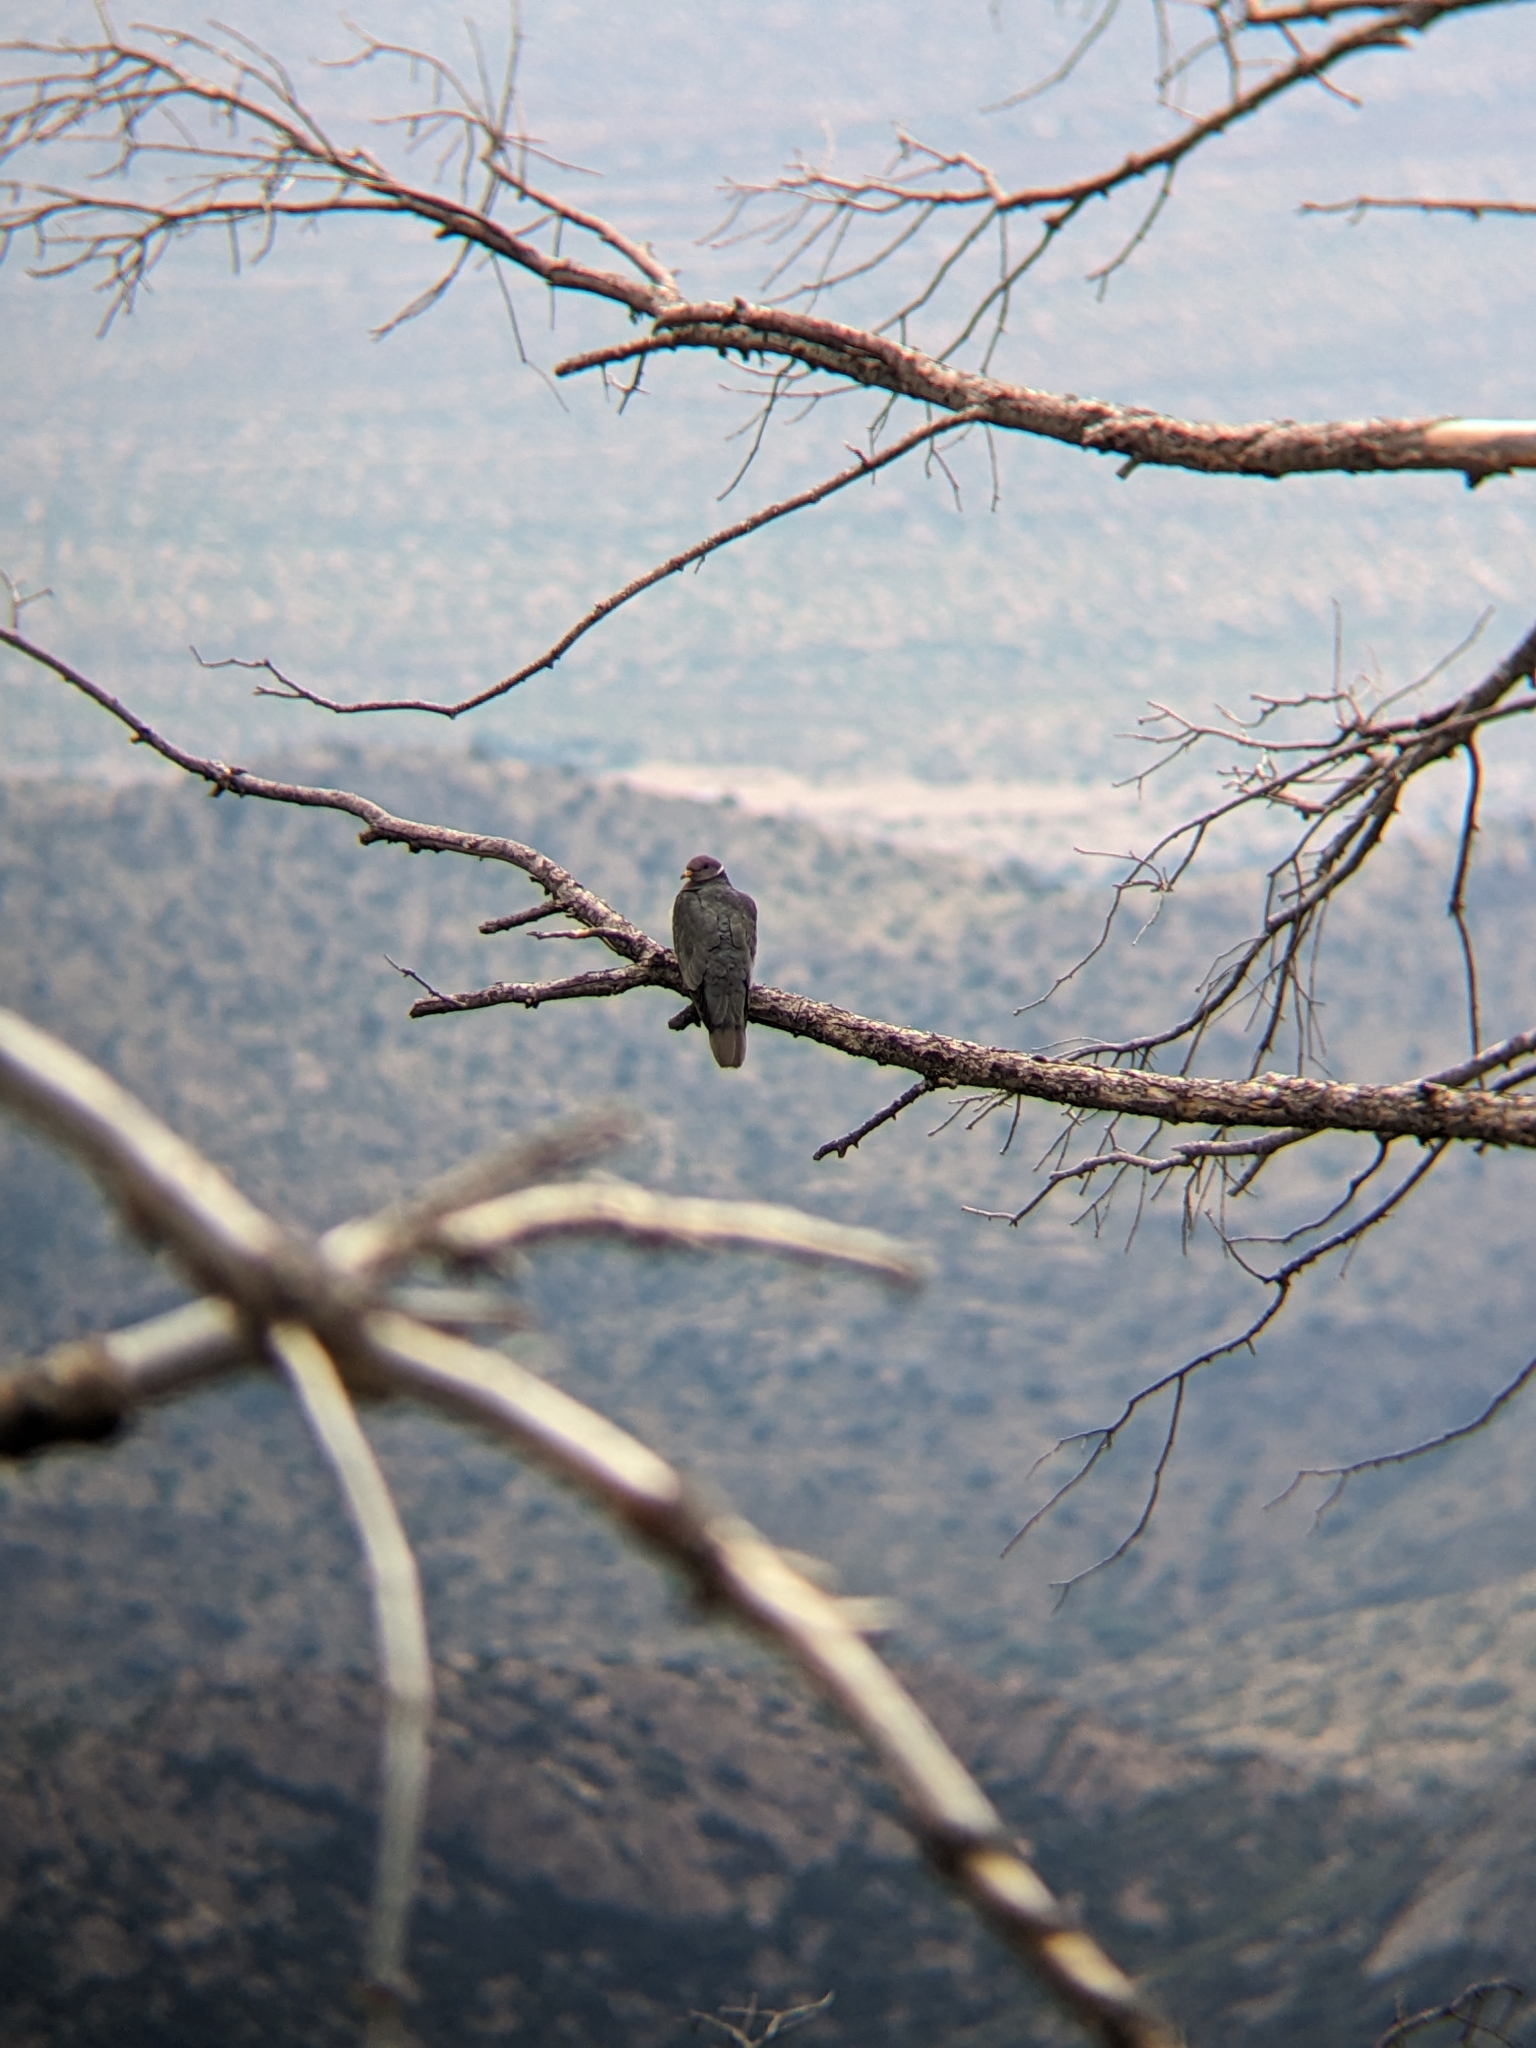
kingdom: Animalia
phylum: Chordata
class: Aves
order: Columbiformes
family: Columbidae
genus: Patagioenas
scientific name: Patagioenas fasciata
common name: Band-tailed pigeon
